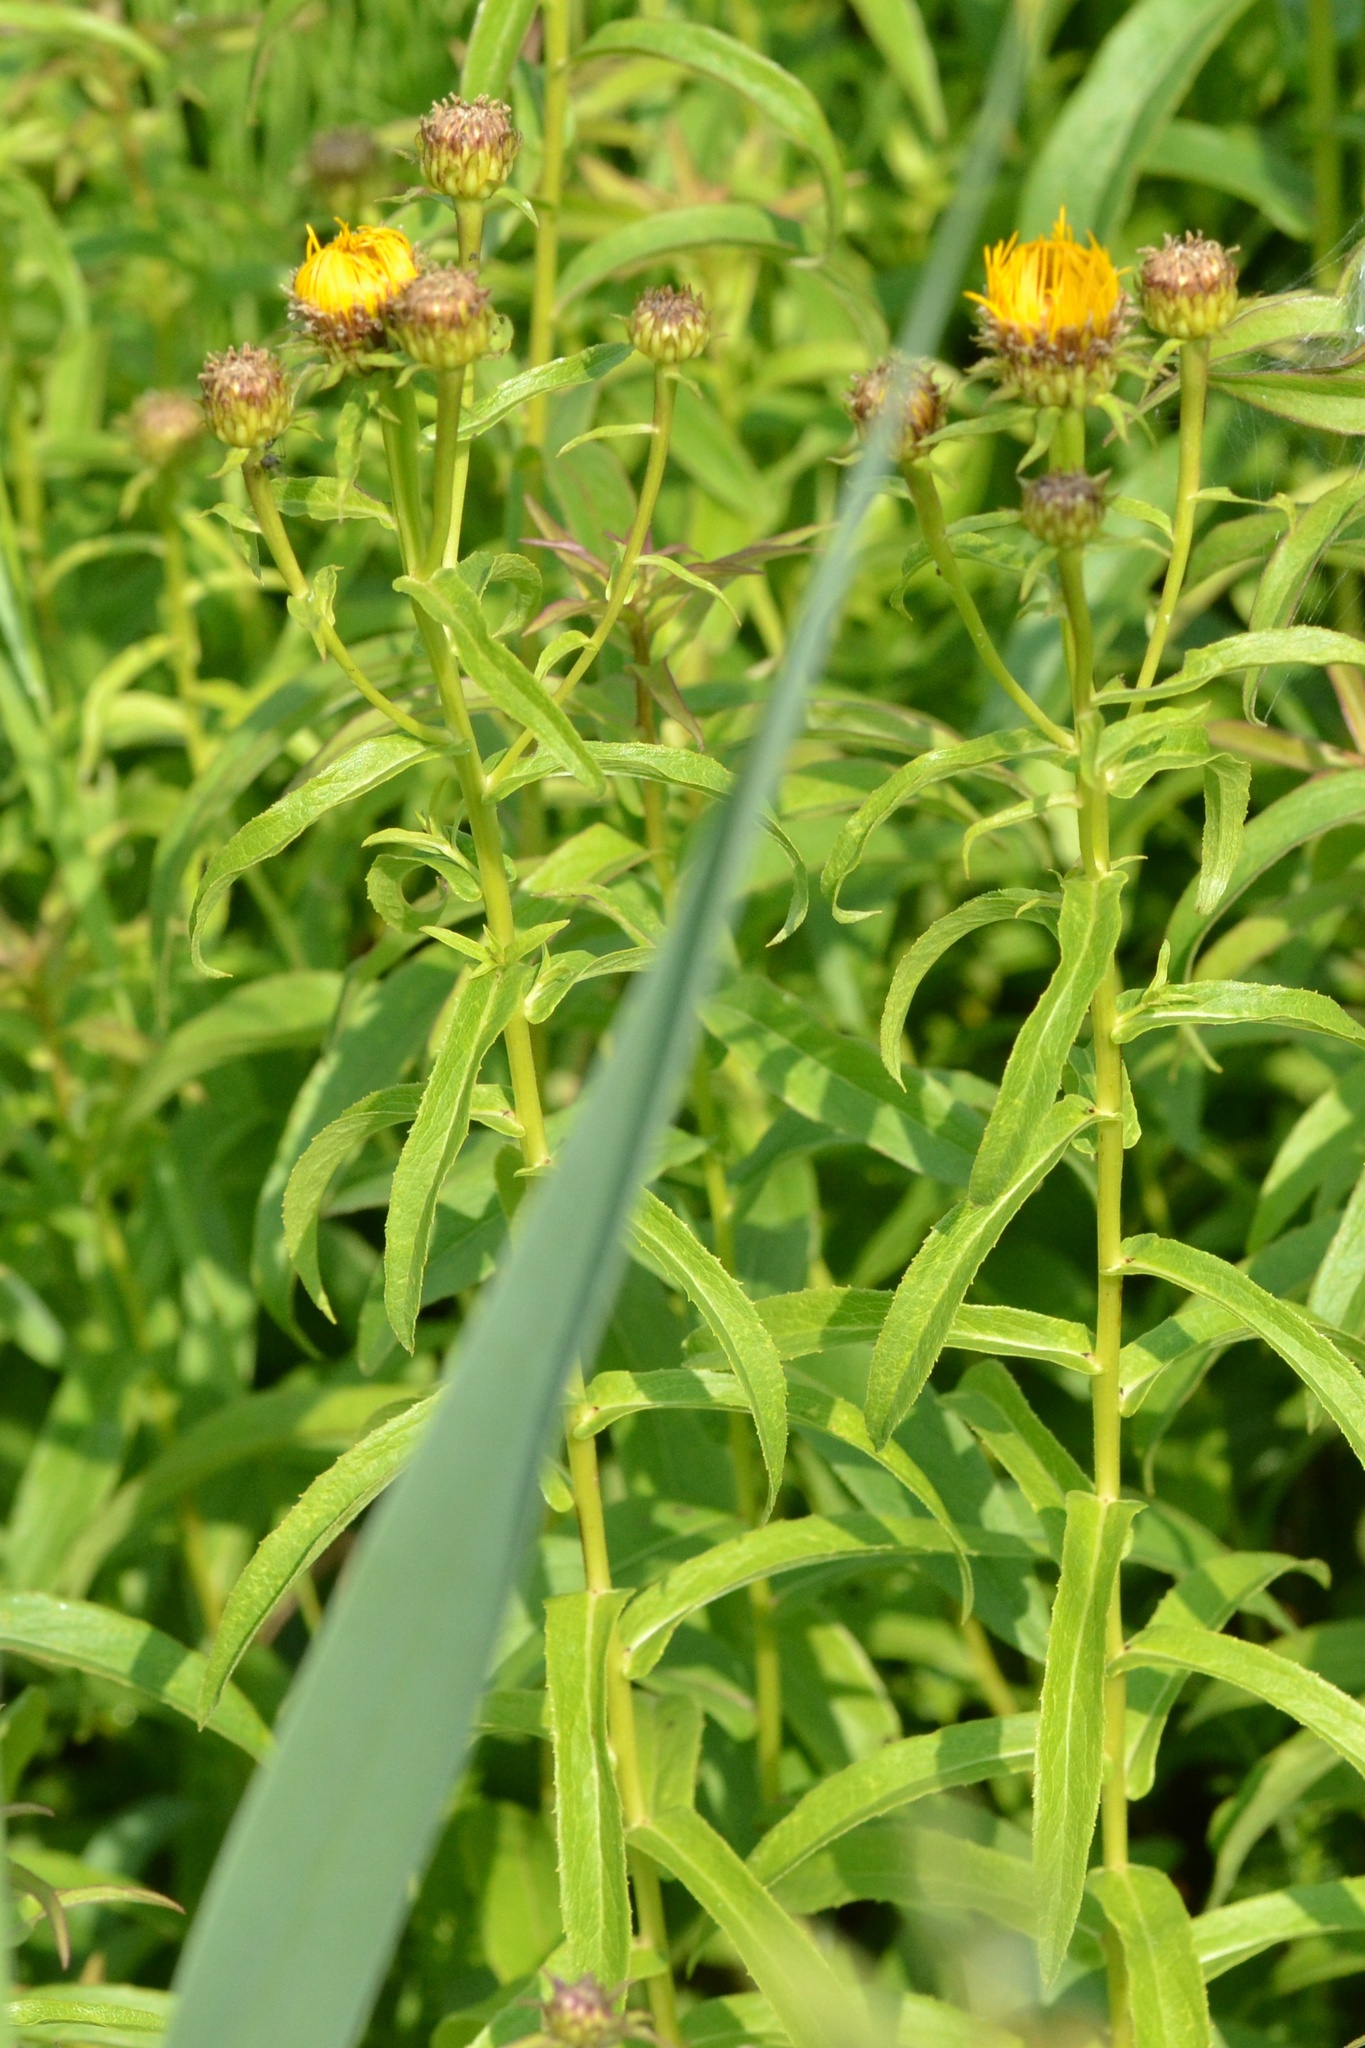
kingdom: Plantae
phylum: Tracheophyta
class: Magnoliopsida
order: Asterales
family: Asteraceae
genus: Pentanema
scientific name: Pentanema salicinum
